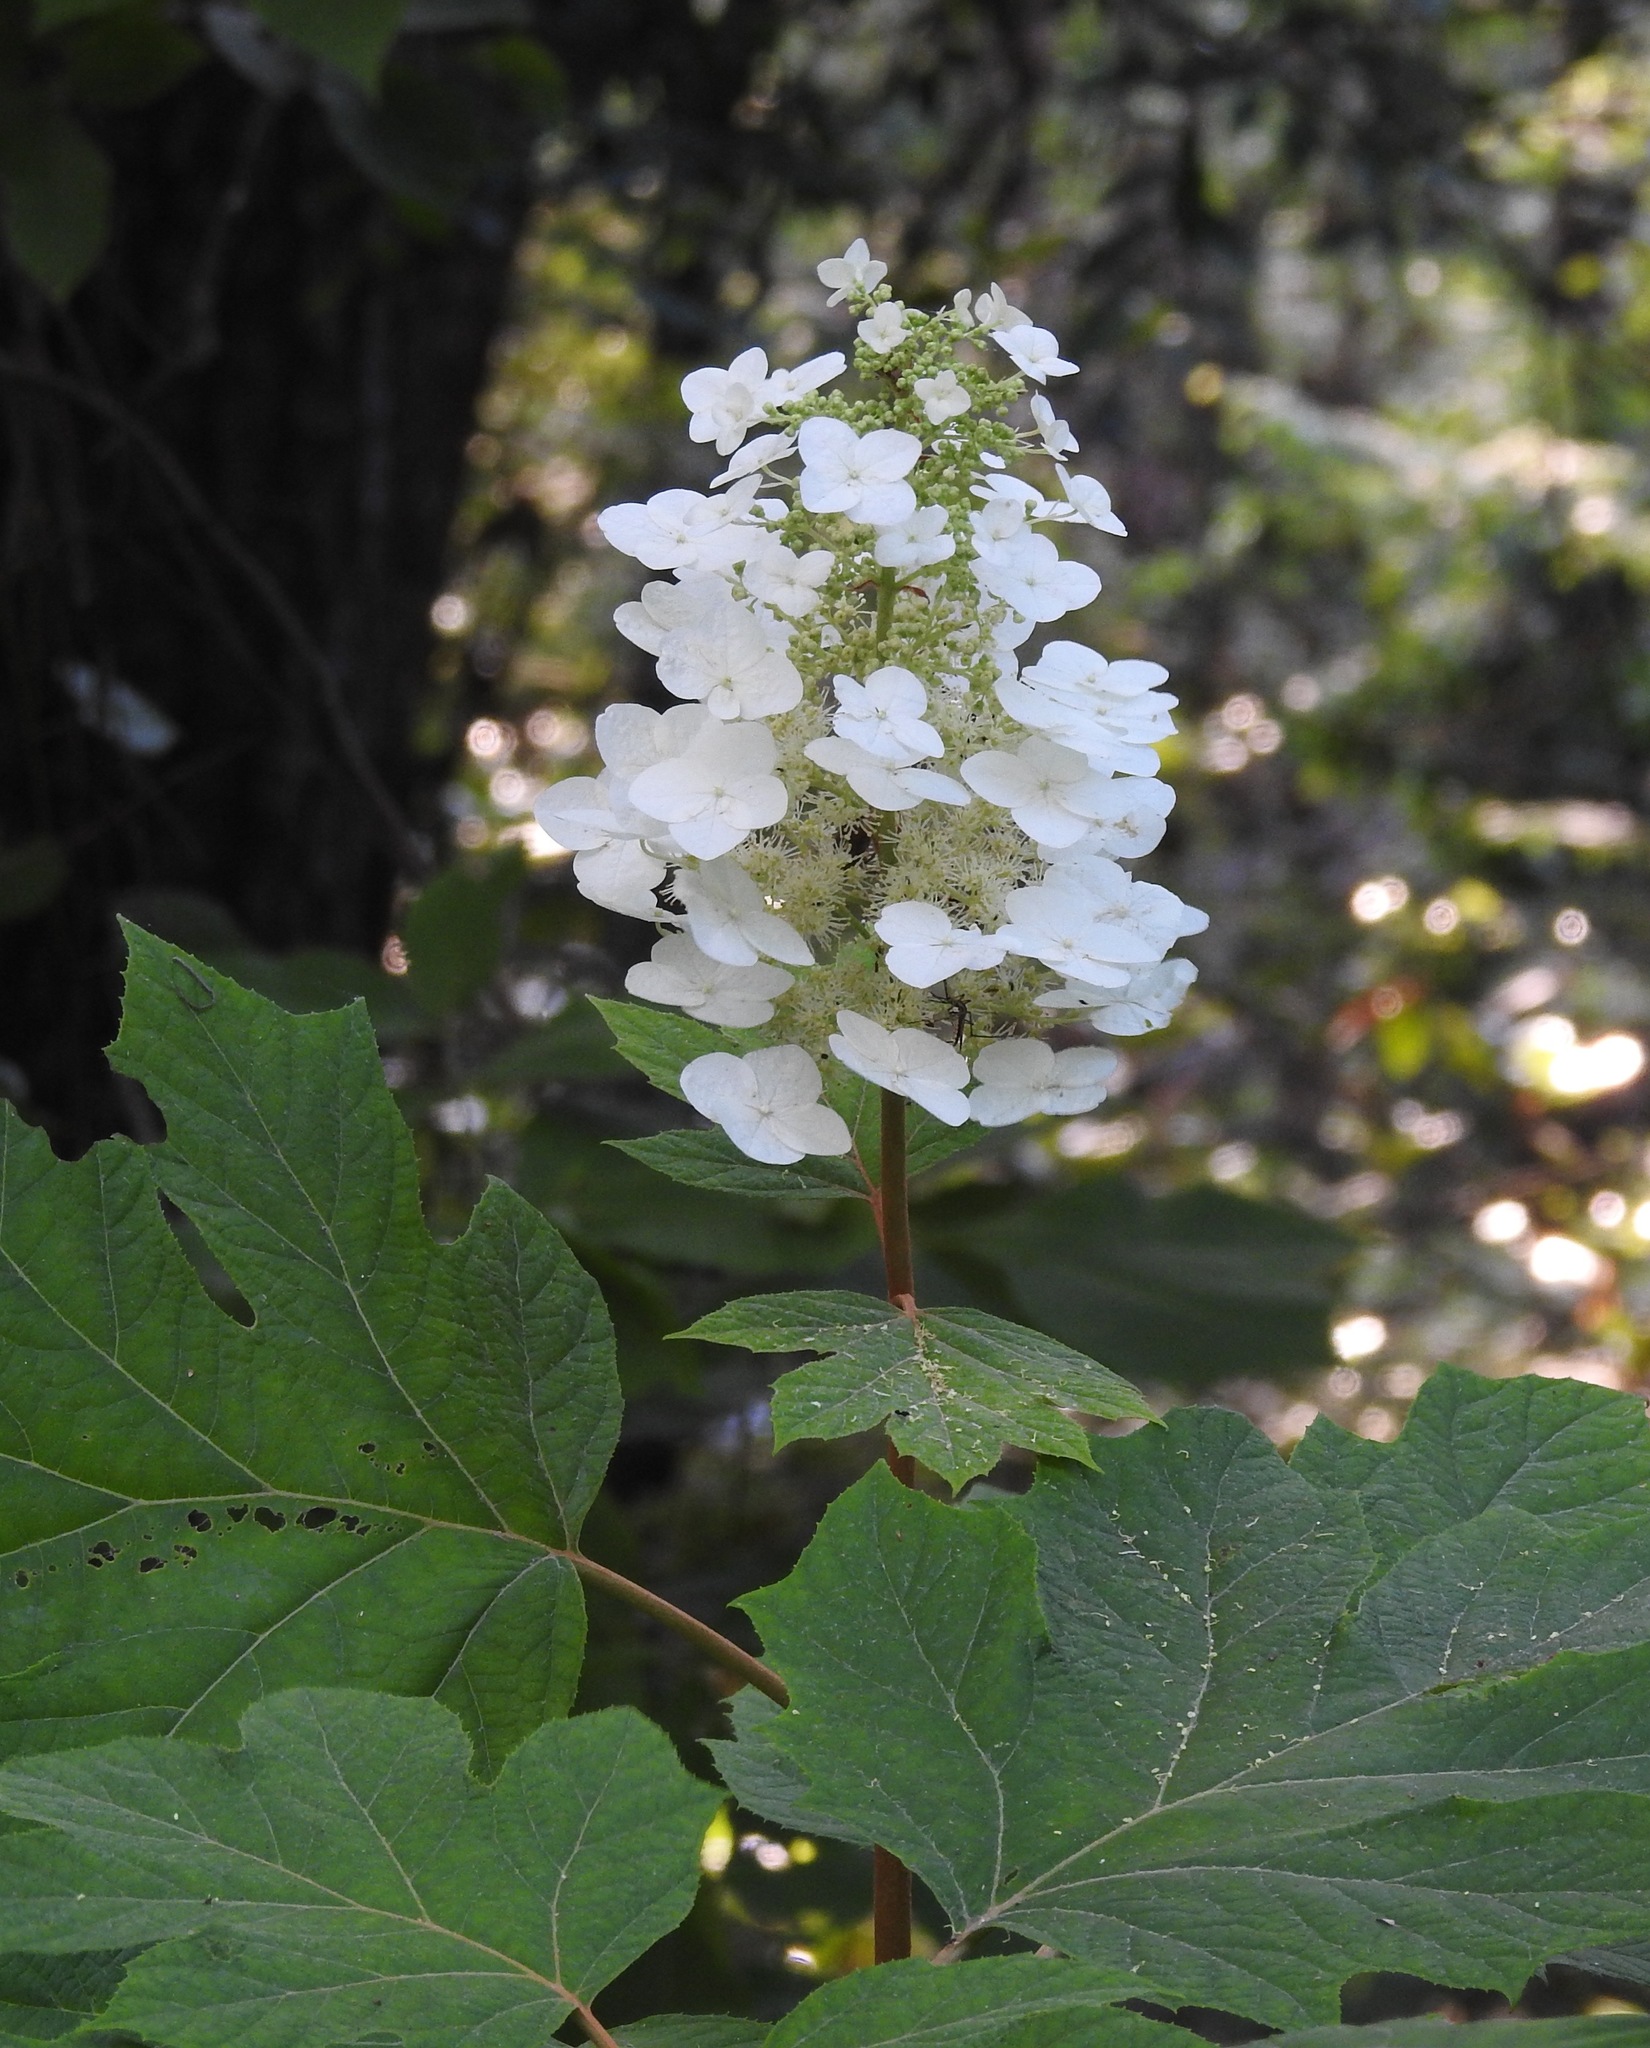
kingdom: Plantae
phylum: Tracheophyta
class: Magnoliopsida
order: Cornales
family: Hydrangeaceae
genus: Hydrangea
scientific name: Hydrangea quercifolia
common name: Oak-leaf hydrangea
